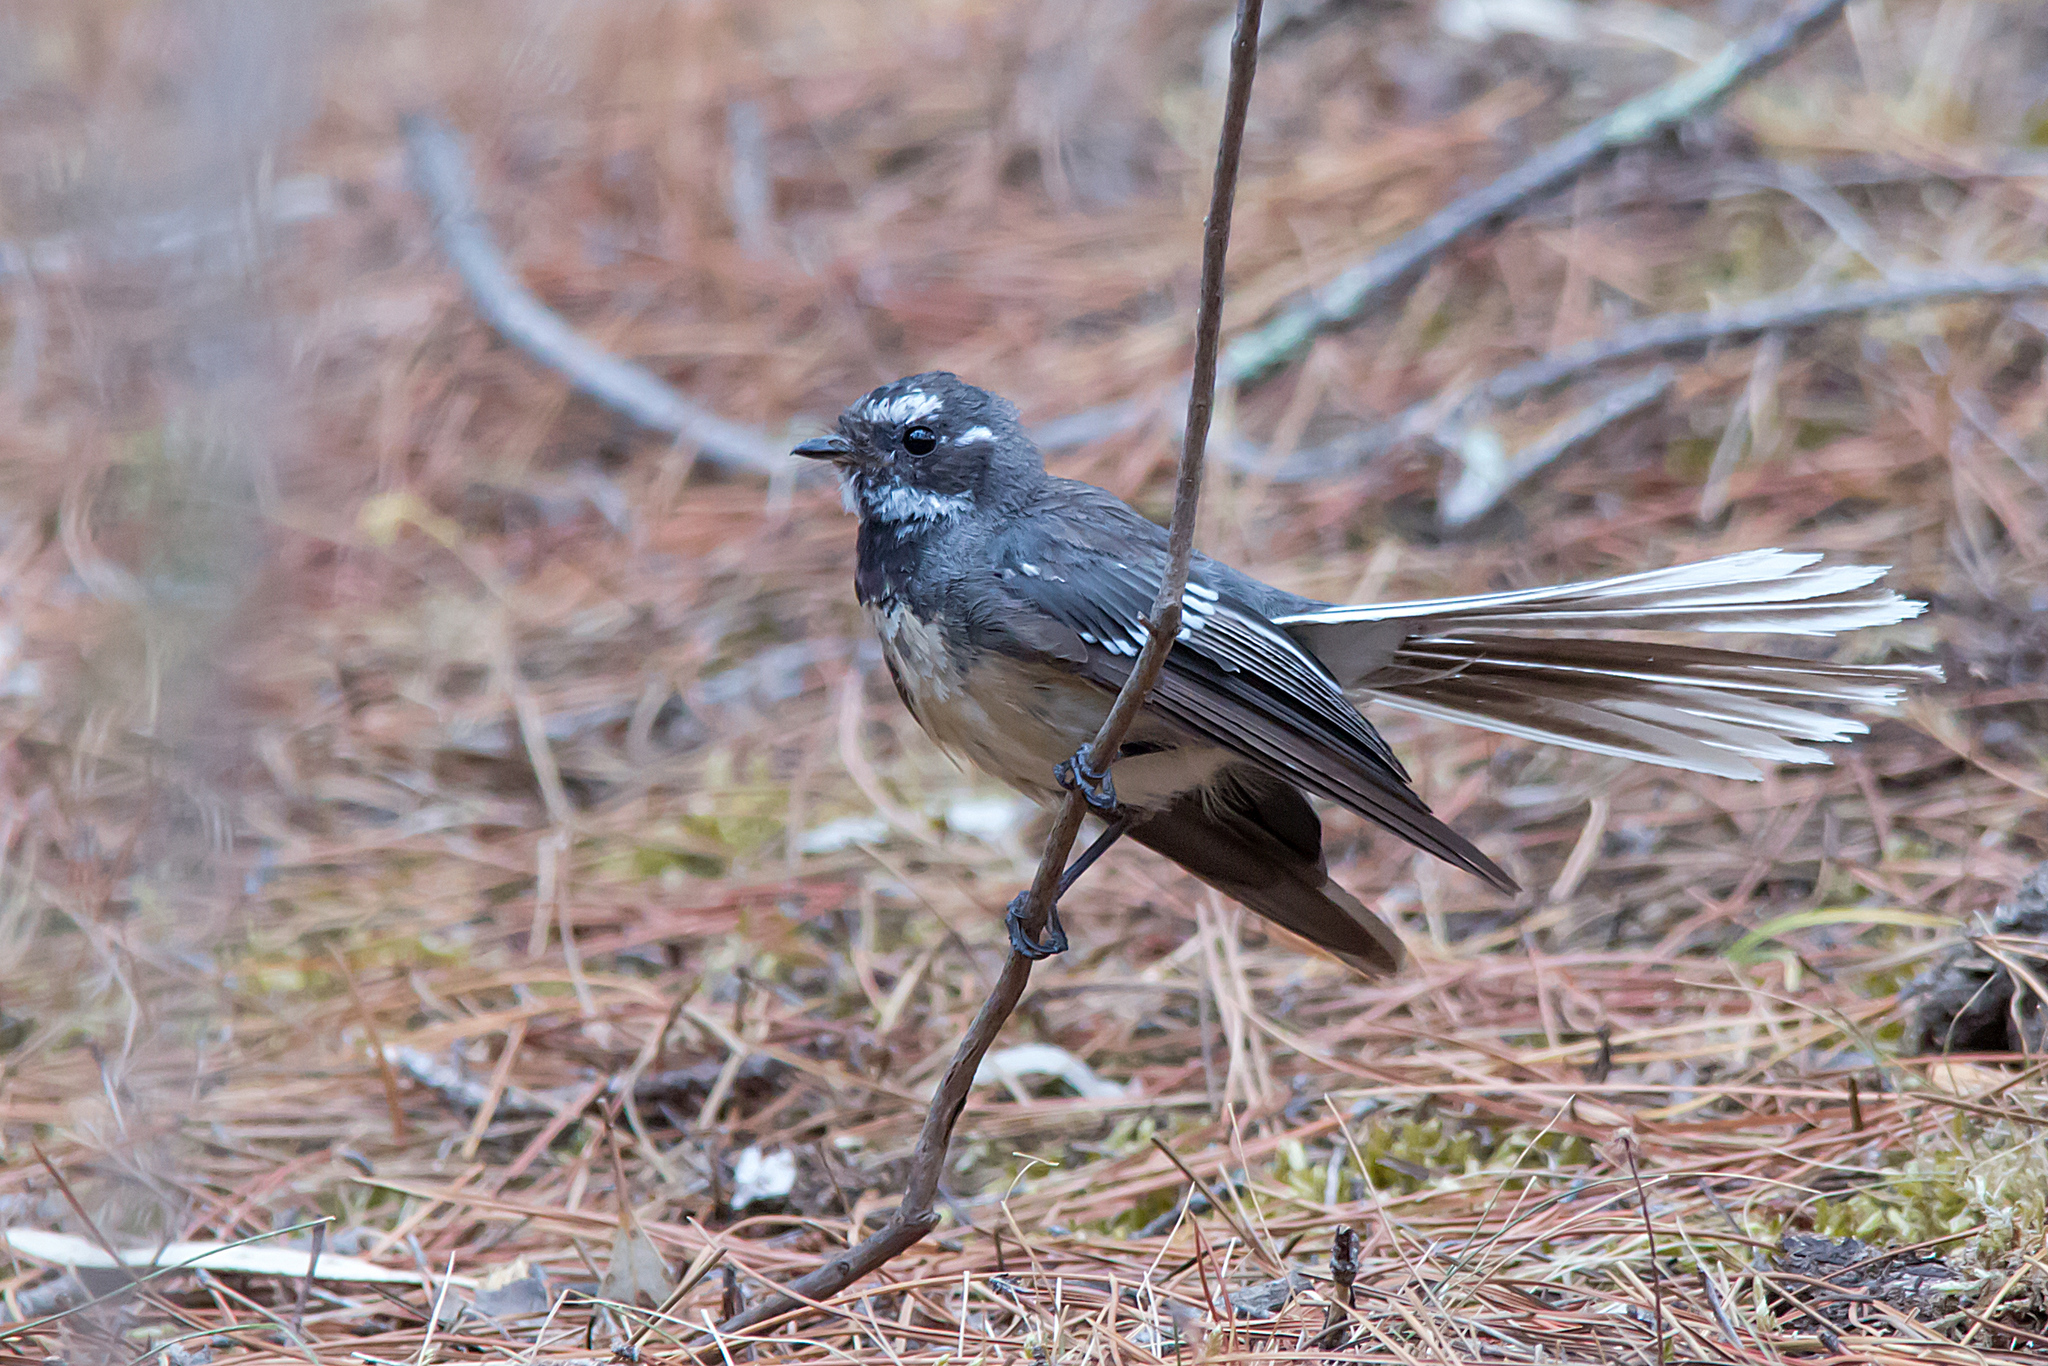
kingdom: Animalia
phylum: Chordata
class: Aves
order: Passeriformes
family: Rhipiduridae
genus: Rhipidura
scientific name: Rhipidura albiscapa
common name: Grey fantail
